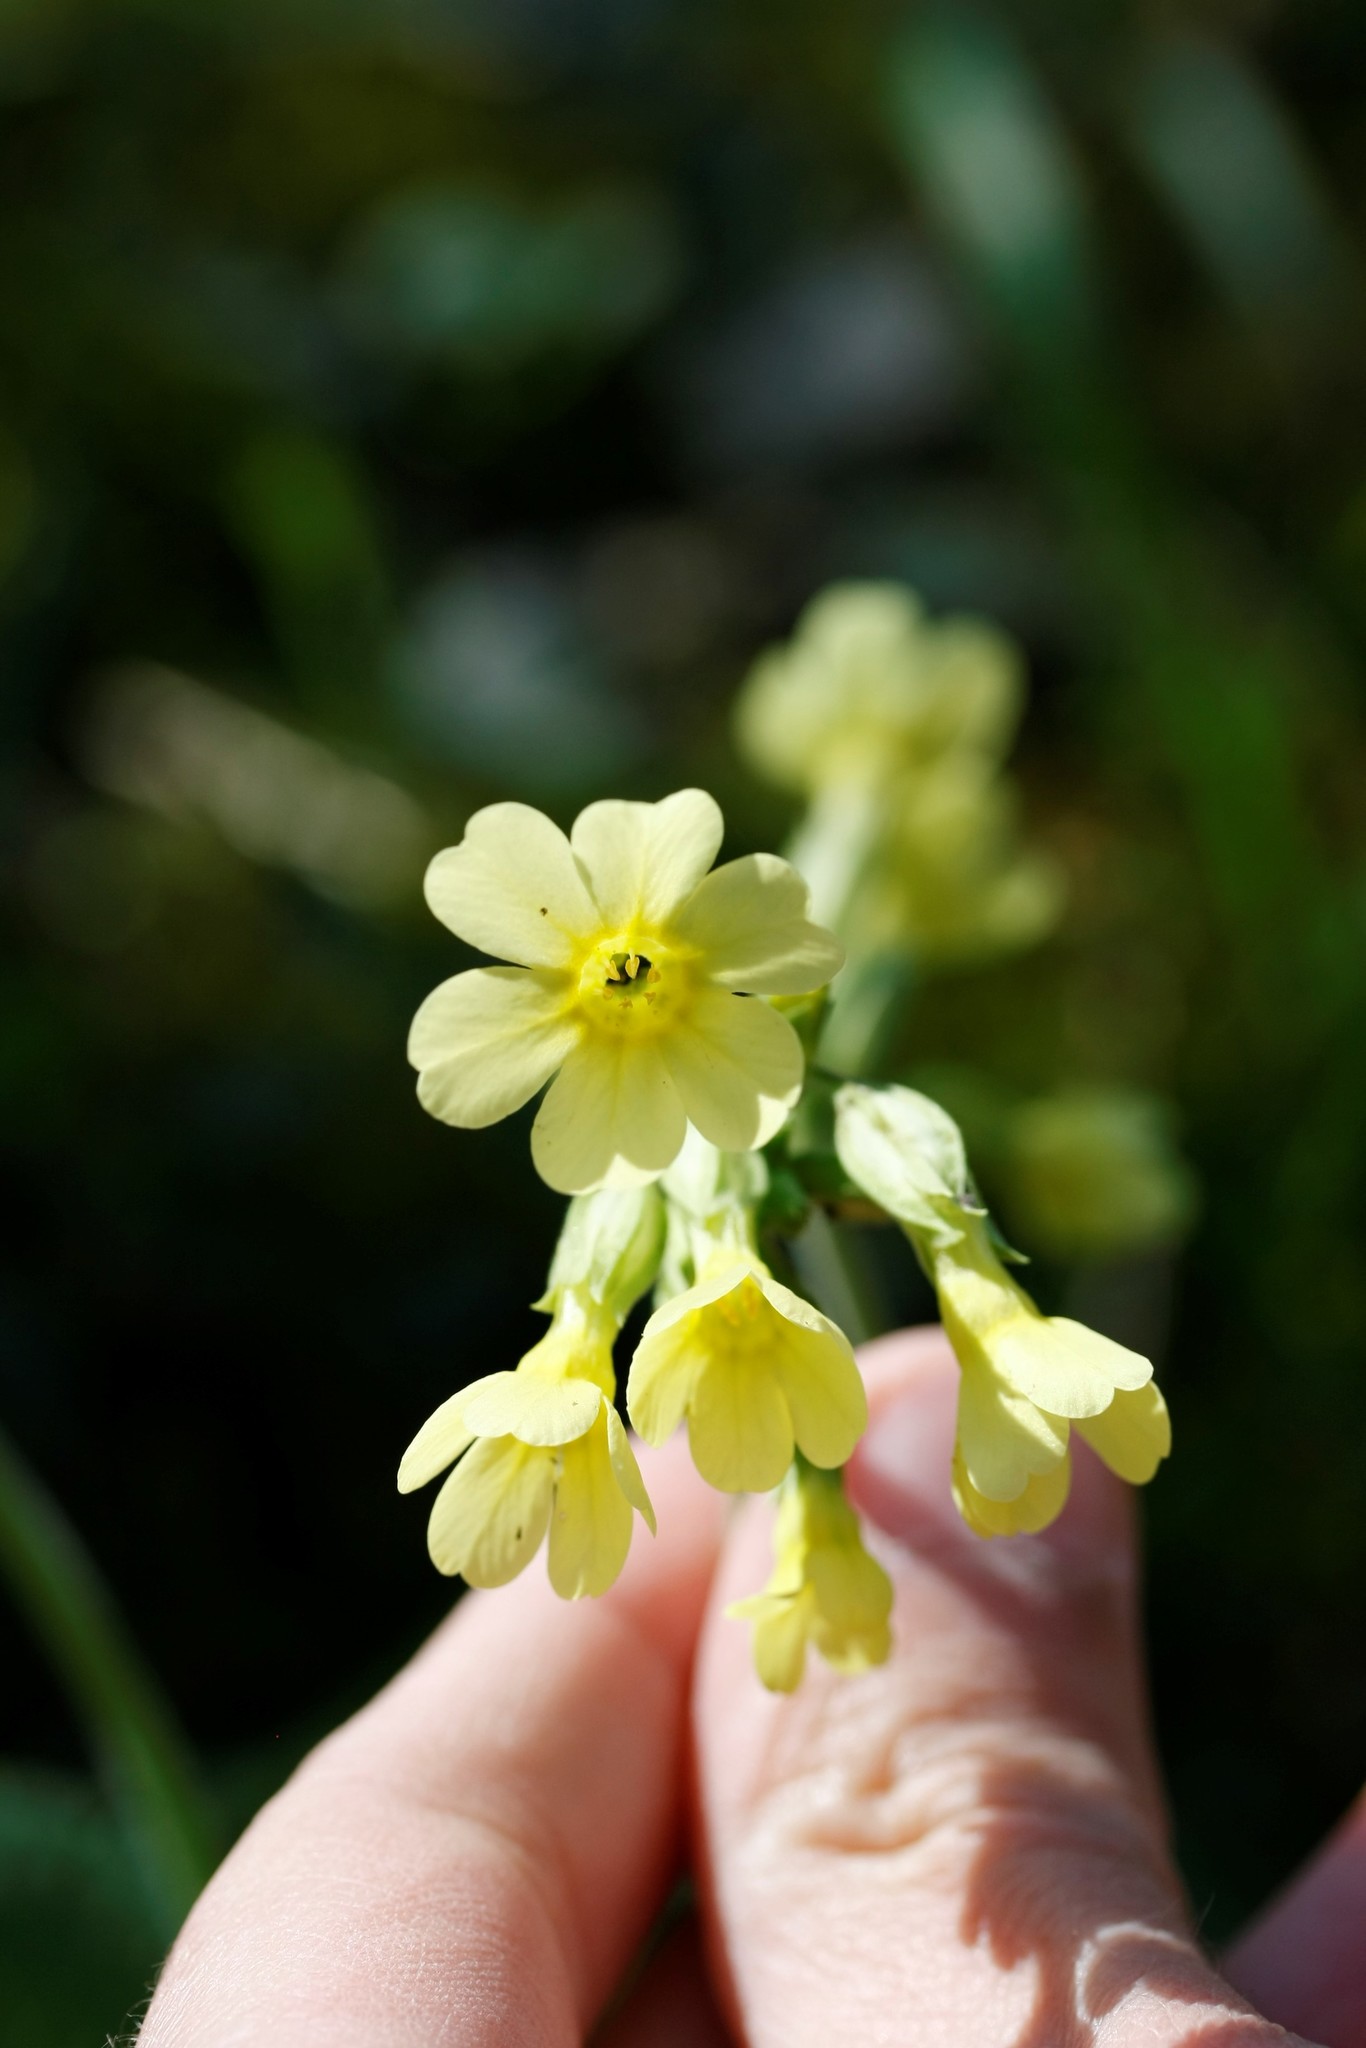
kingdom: Plantae
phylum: Tracheophyta
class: Magnoliopsida
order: Ericales
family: Primulaceae
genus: Primula
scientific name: Primula elatior
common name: Oxlip
